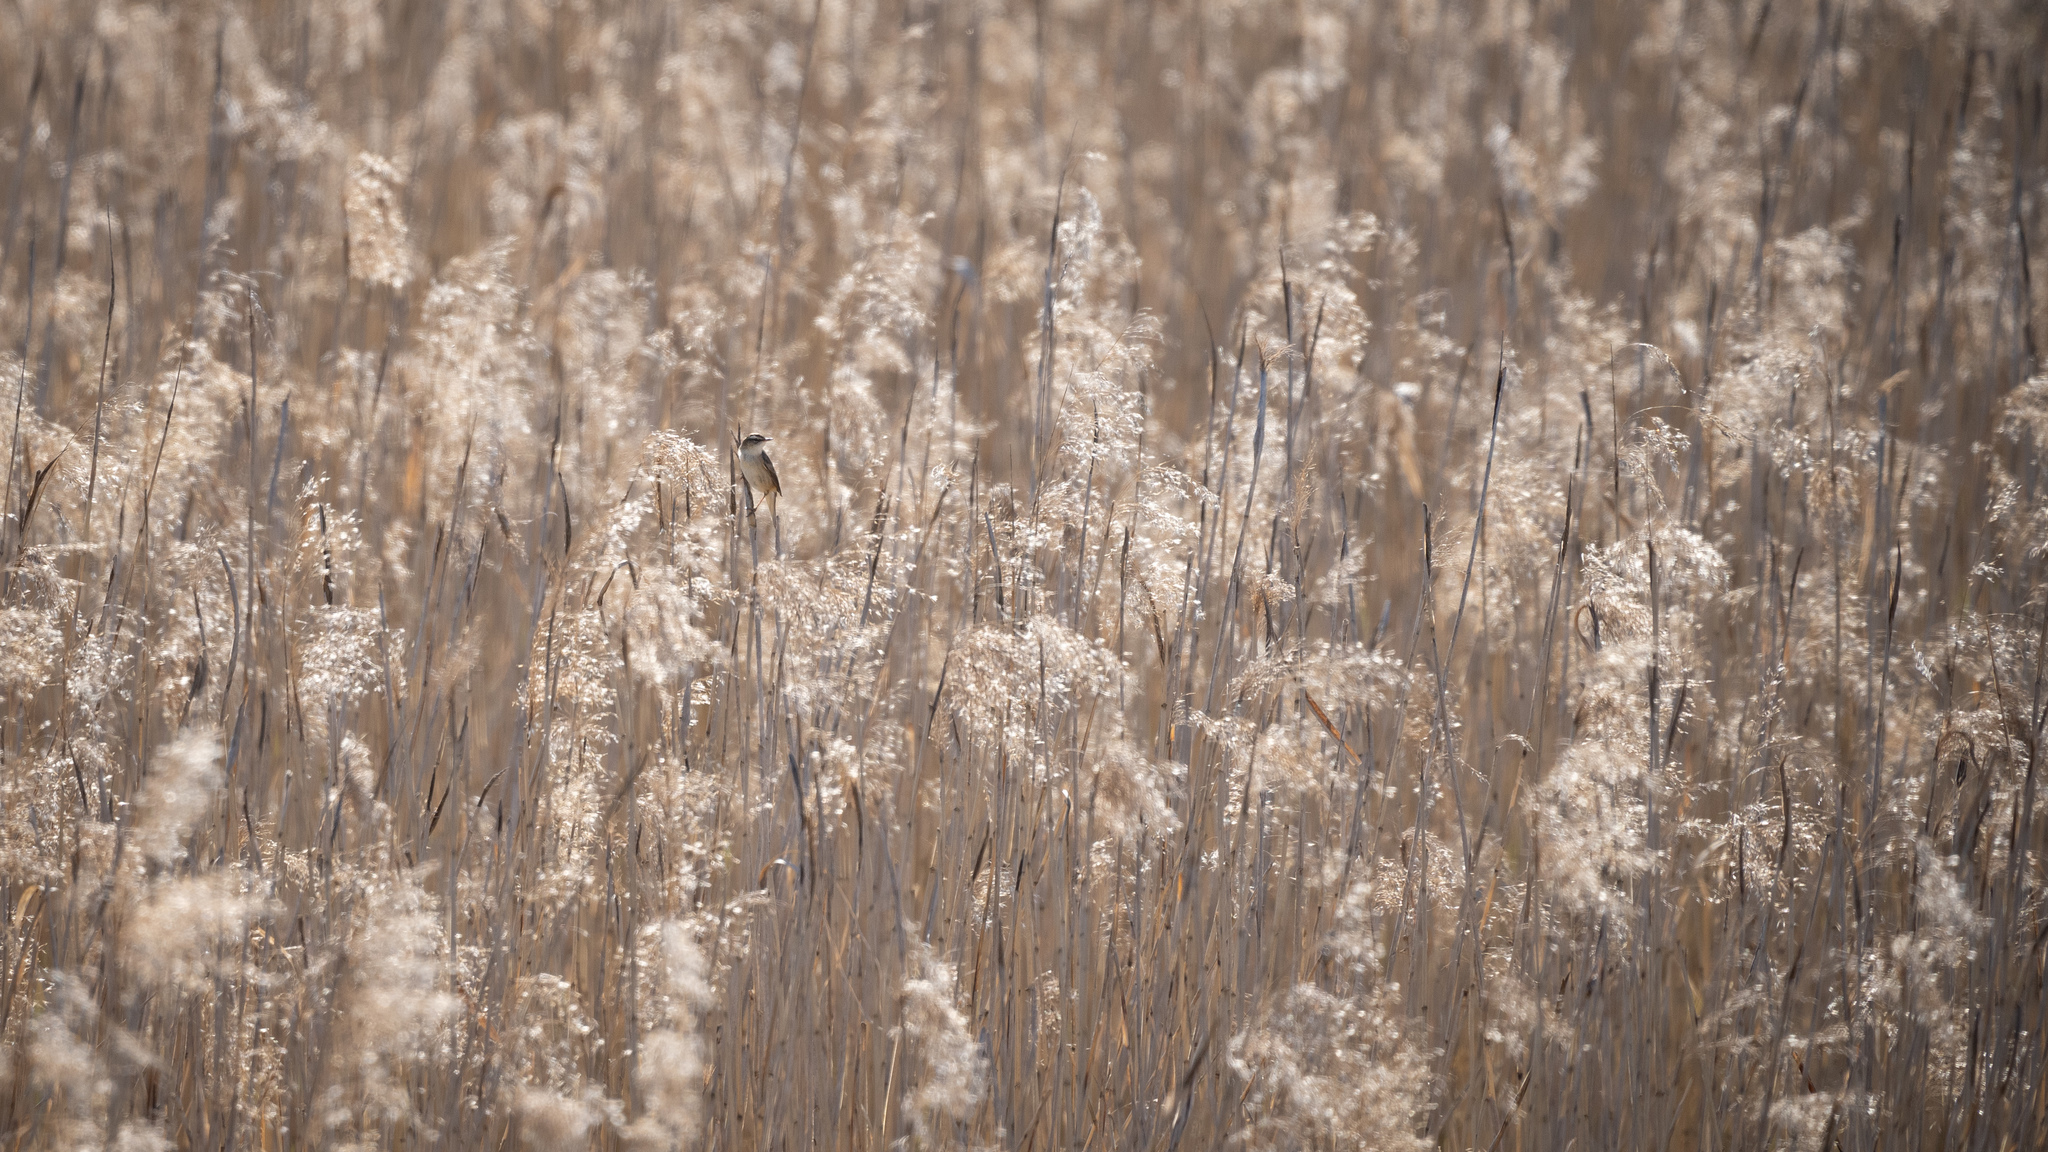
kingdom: Animalia
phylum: Chordata
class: Aves
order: Passeriformes
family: Acrocephalidae
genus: Acrocephalus
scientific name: Acrocephalus schoenobaenus
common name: Sedge warbler
